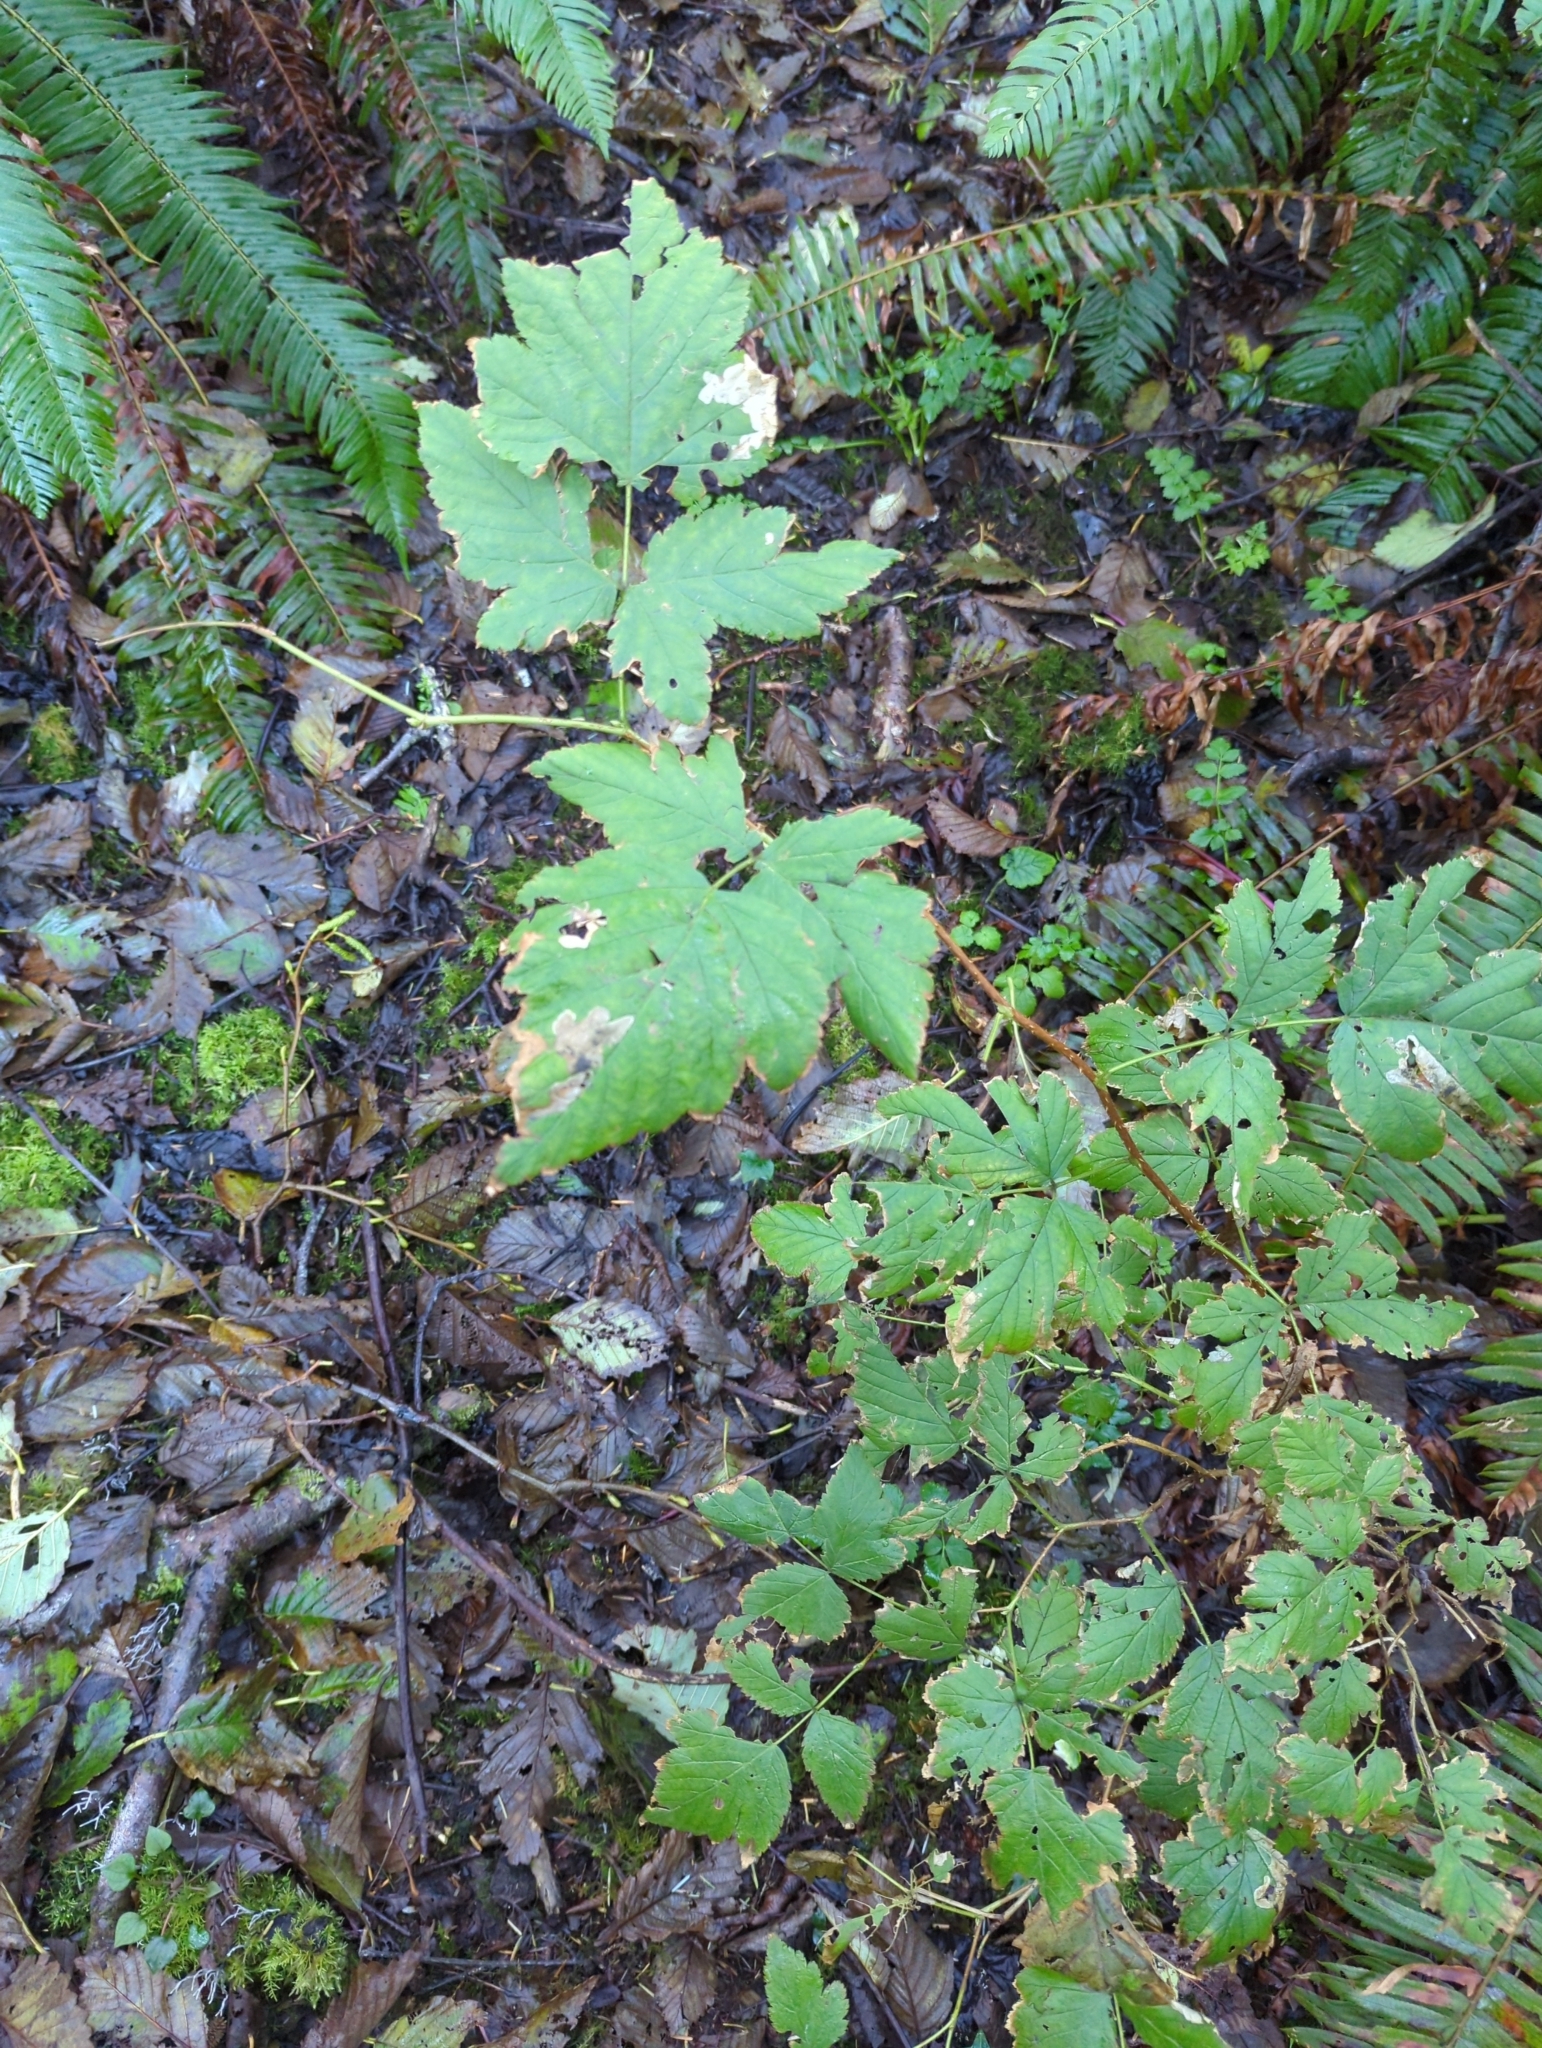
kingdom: Plantae
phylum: Tracheophyta
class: Magnoliopsida
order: Rosales
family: Rosaceae
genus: Rubus
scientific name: Rubus spectabilis
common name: Salmonberry
